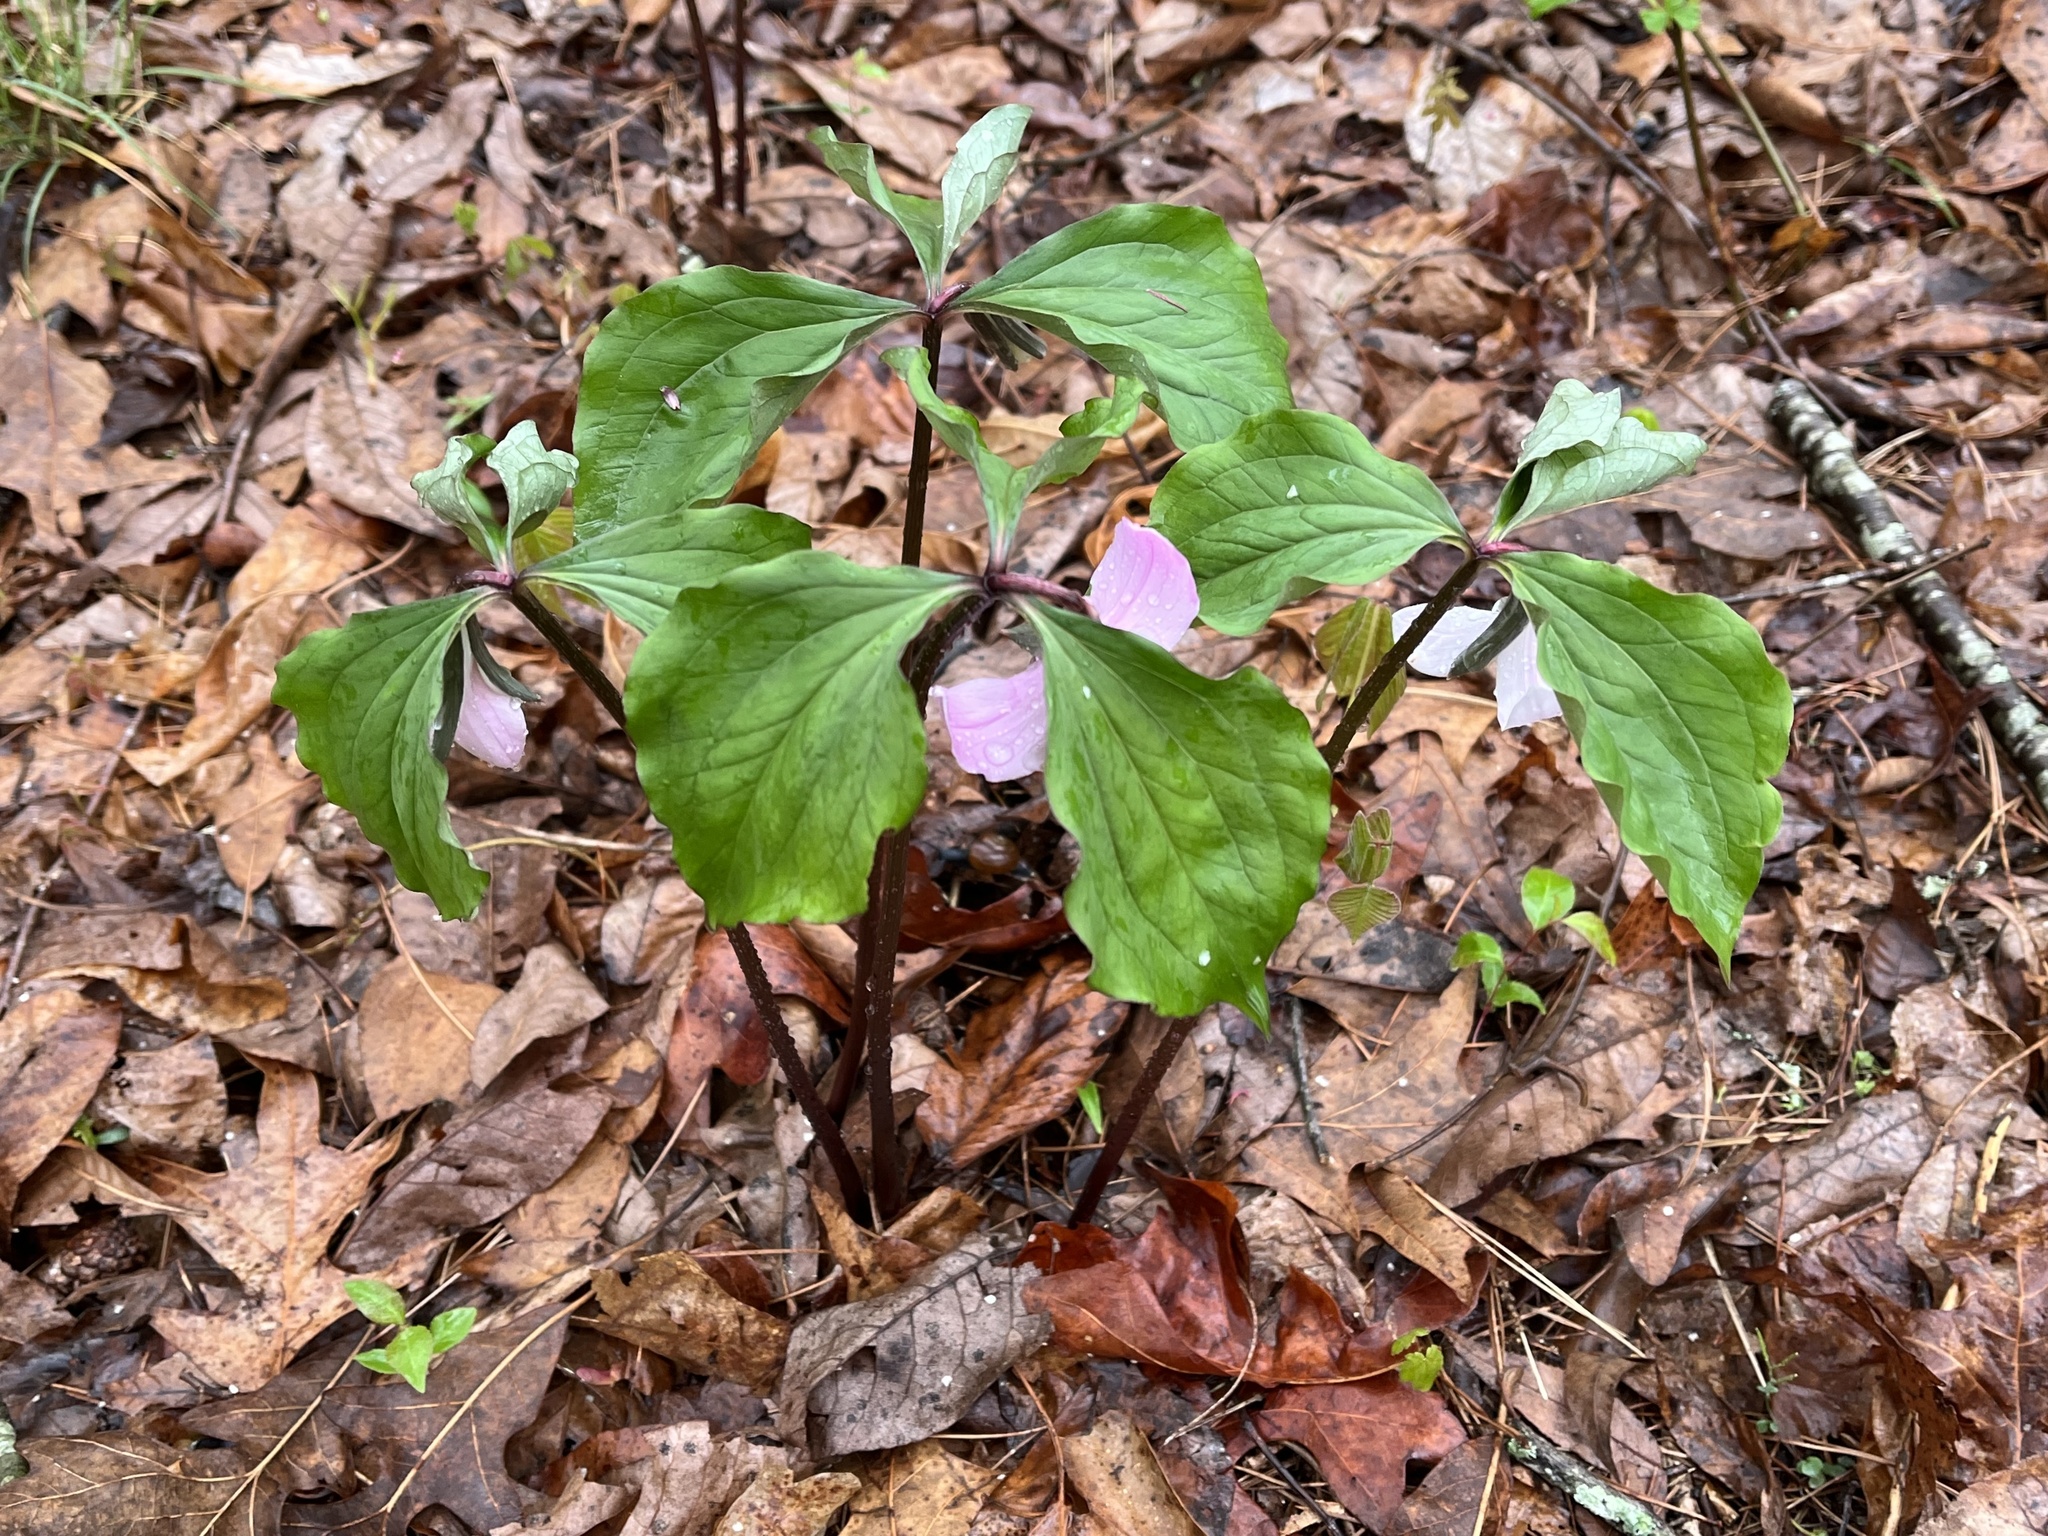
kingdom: Plantae
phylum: Tracheophyta
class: Liliopsida
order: Liliales
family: Melanthiaceae
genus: Trillium
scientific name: Trillium catesbaei
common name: Bashful trillium
